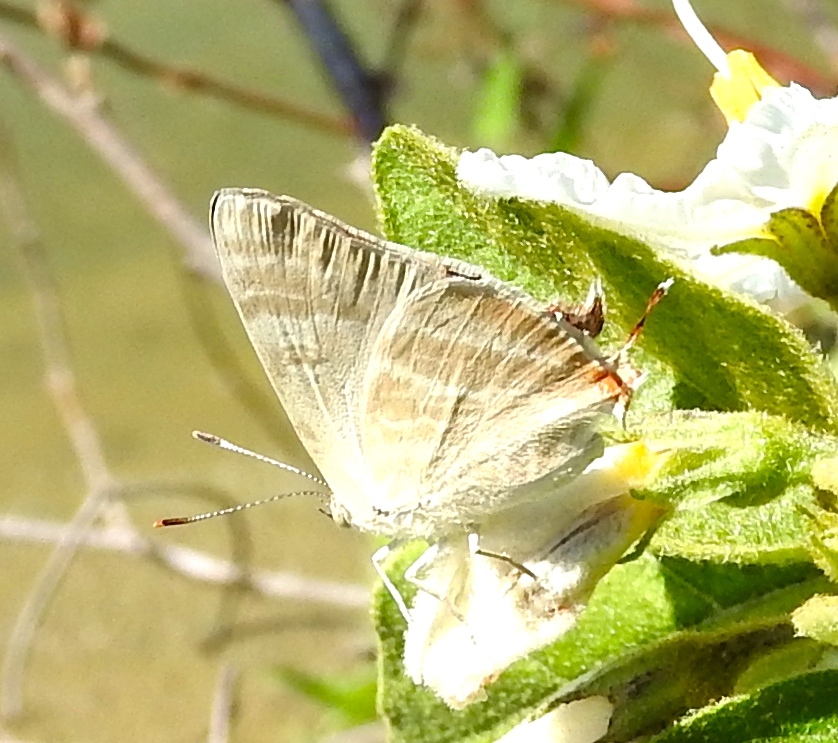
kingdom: Animalia
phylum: Arthropoda
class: Insecta
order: Lepidoptera
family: Lycaenidae
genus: Dolymorpha
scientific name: Dolymorpha jada
